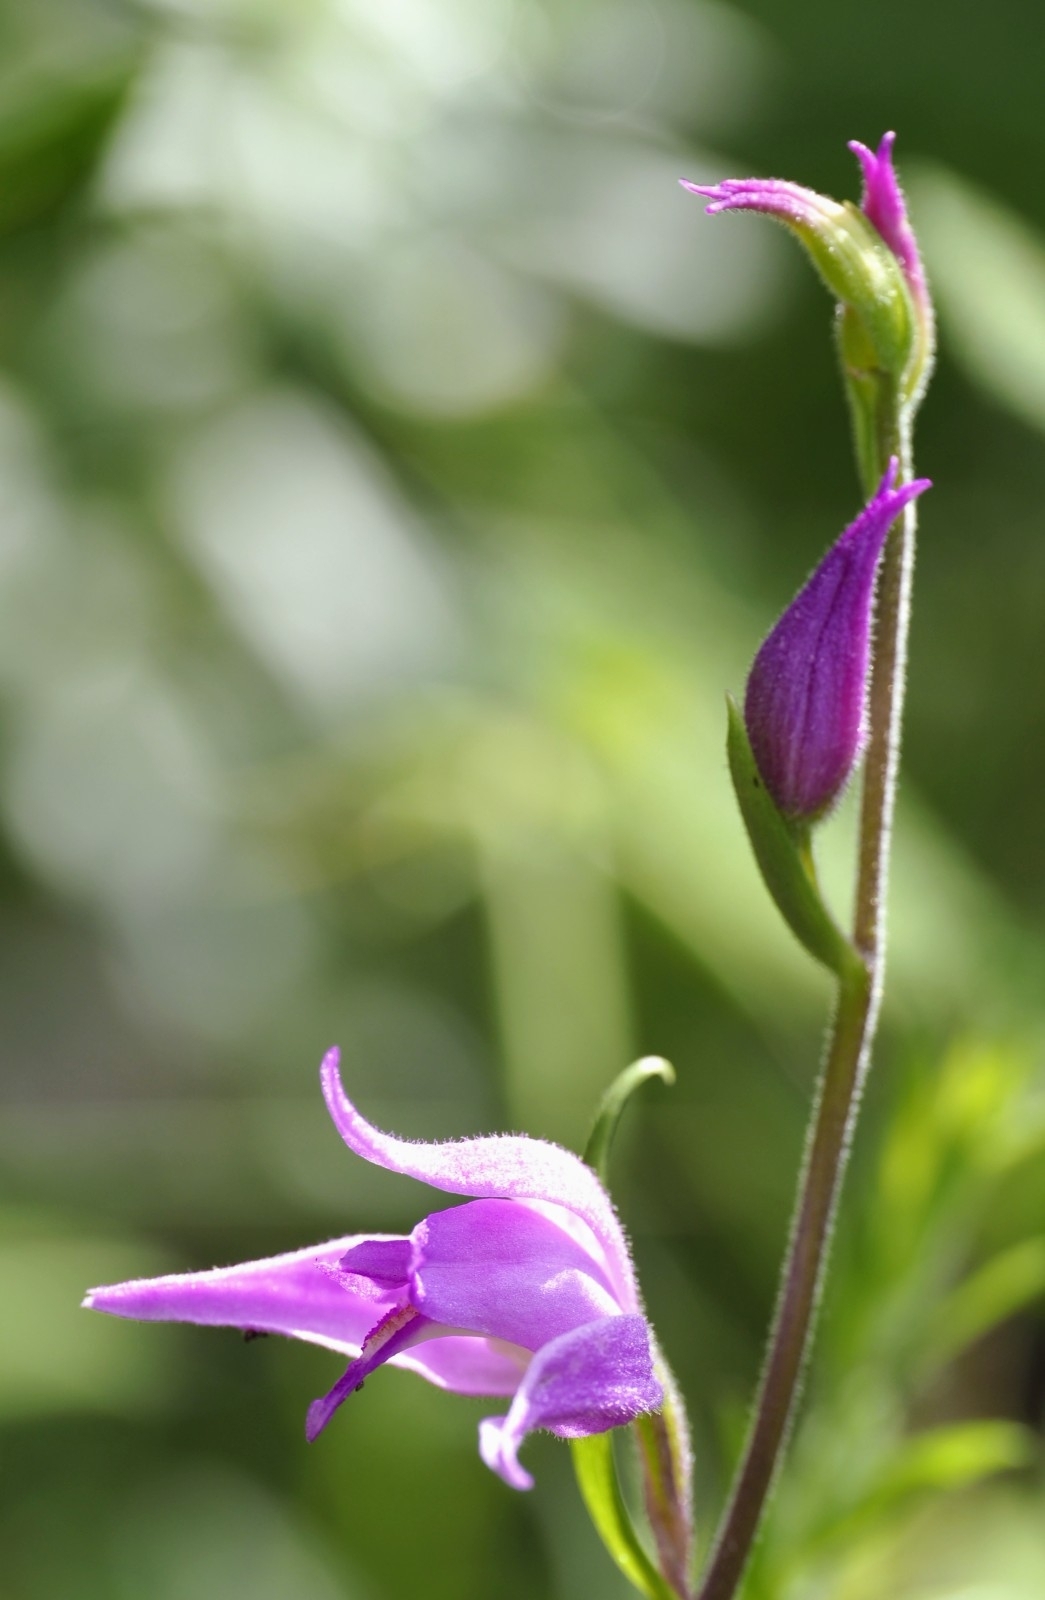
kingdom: Plantae
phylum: Tracheophyta
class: Liliopsida
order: Asparagales
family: Orchidaceae
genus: Cephalanthera
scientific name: Cephalanthera rubra
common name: Red helleborine
